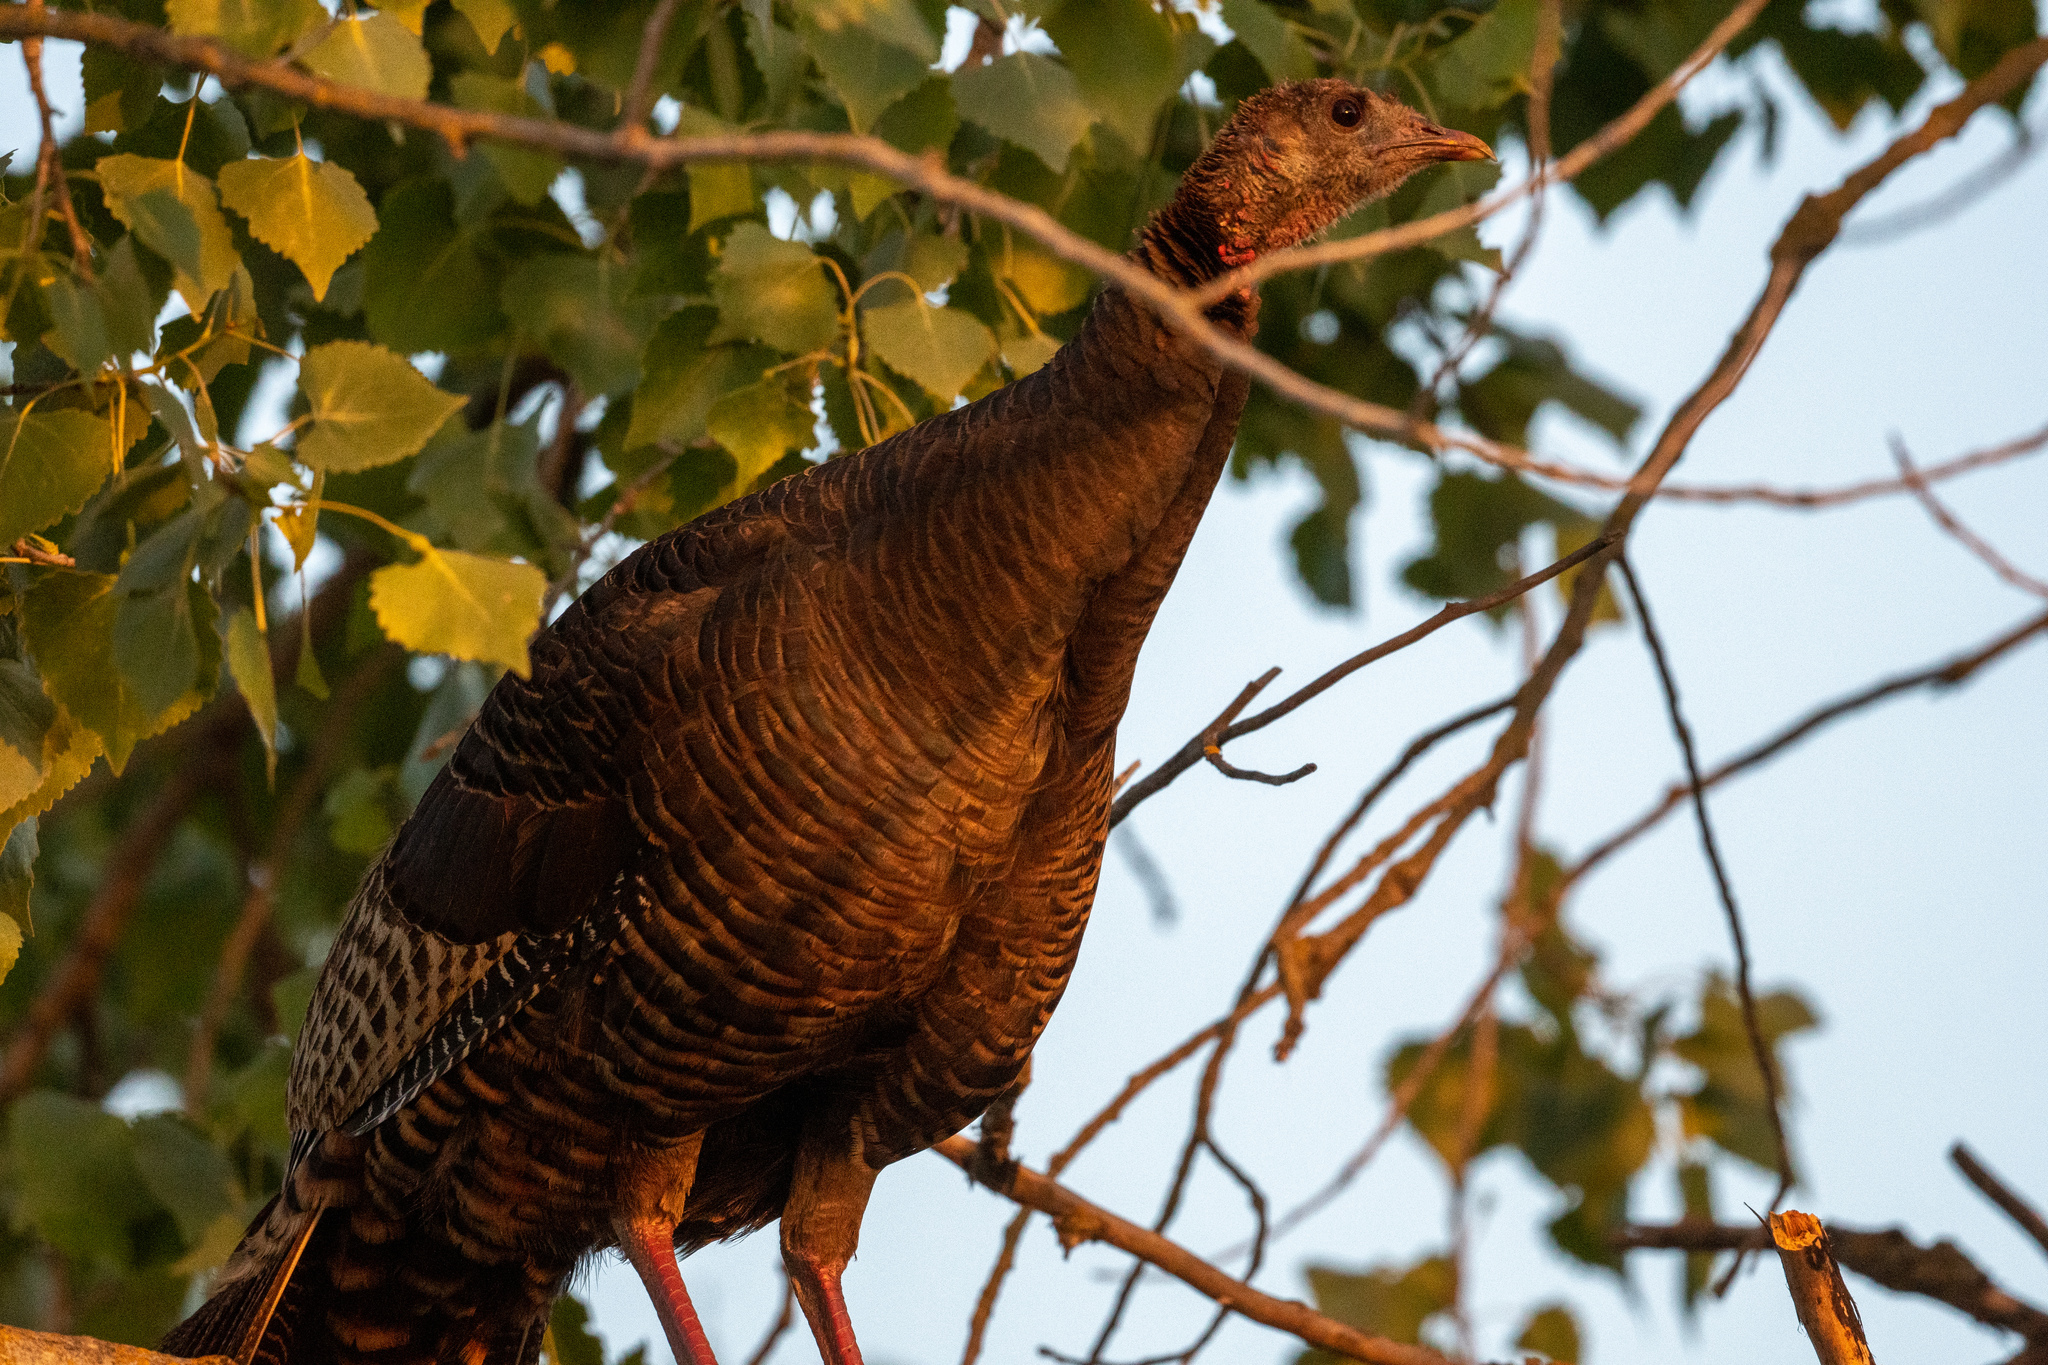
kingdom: Animalia
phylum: Chordata
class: Aves
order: Galliformes
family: Phasianidae
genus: Meleagris
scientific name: Meleagris gallopavo
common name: Wild turkey
